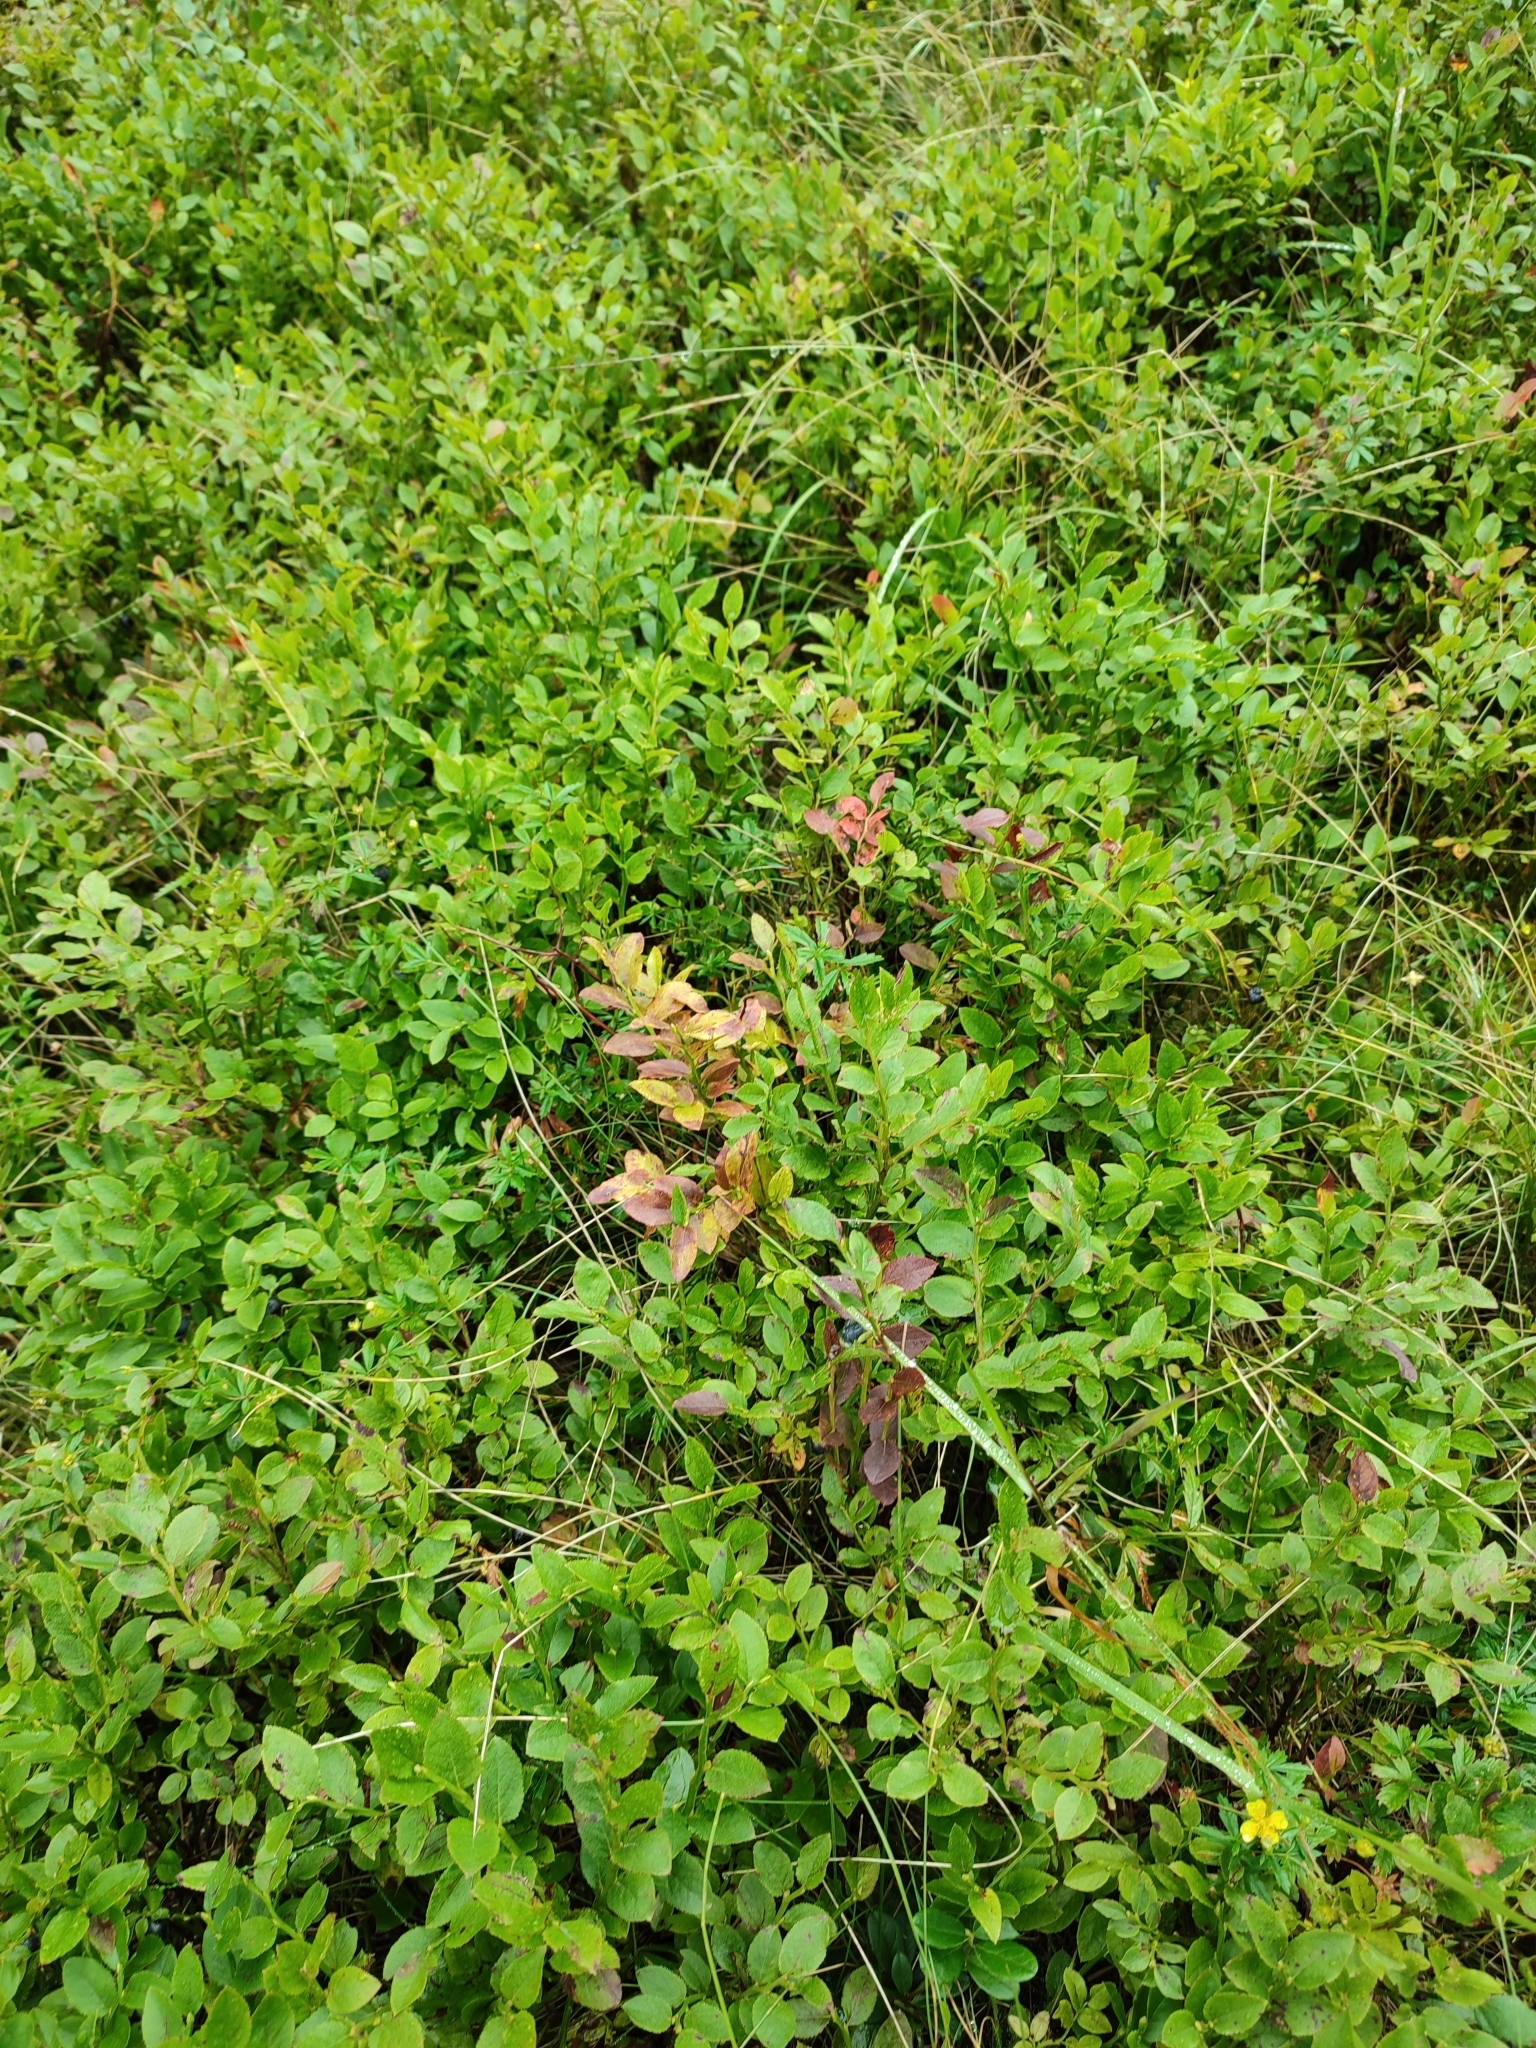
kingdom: Plantae
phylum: Tracheophyta
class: Magnoliopsida
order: Ericales
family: Ericaceae
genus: Vaccinium
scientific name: Vaccinium myrtillus
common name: Bilberry
